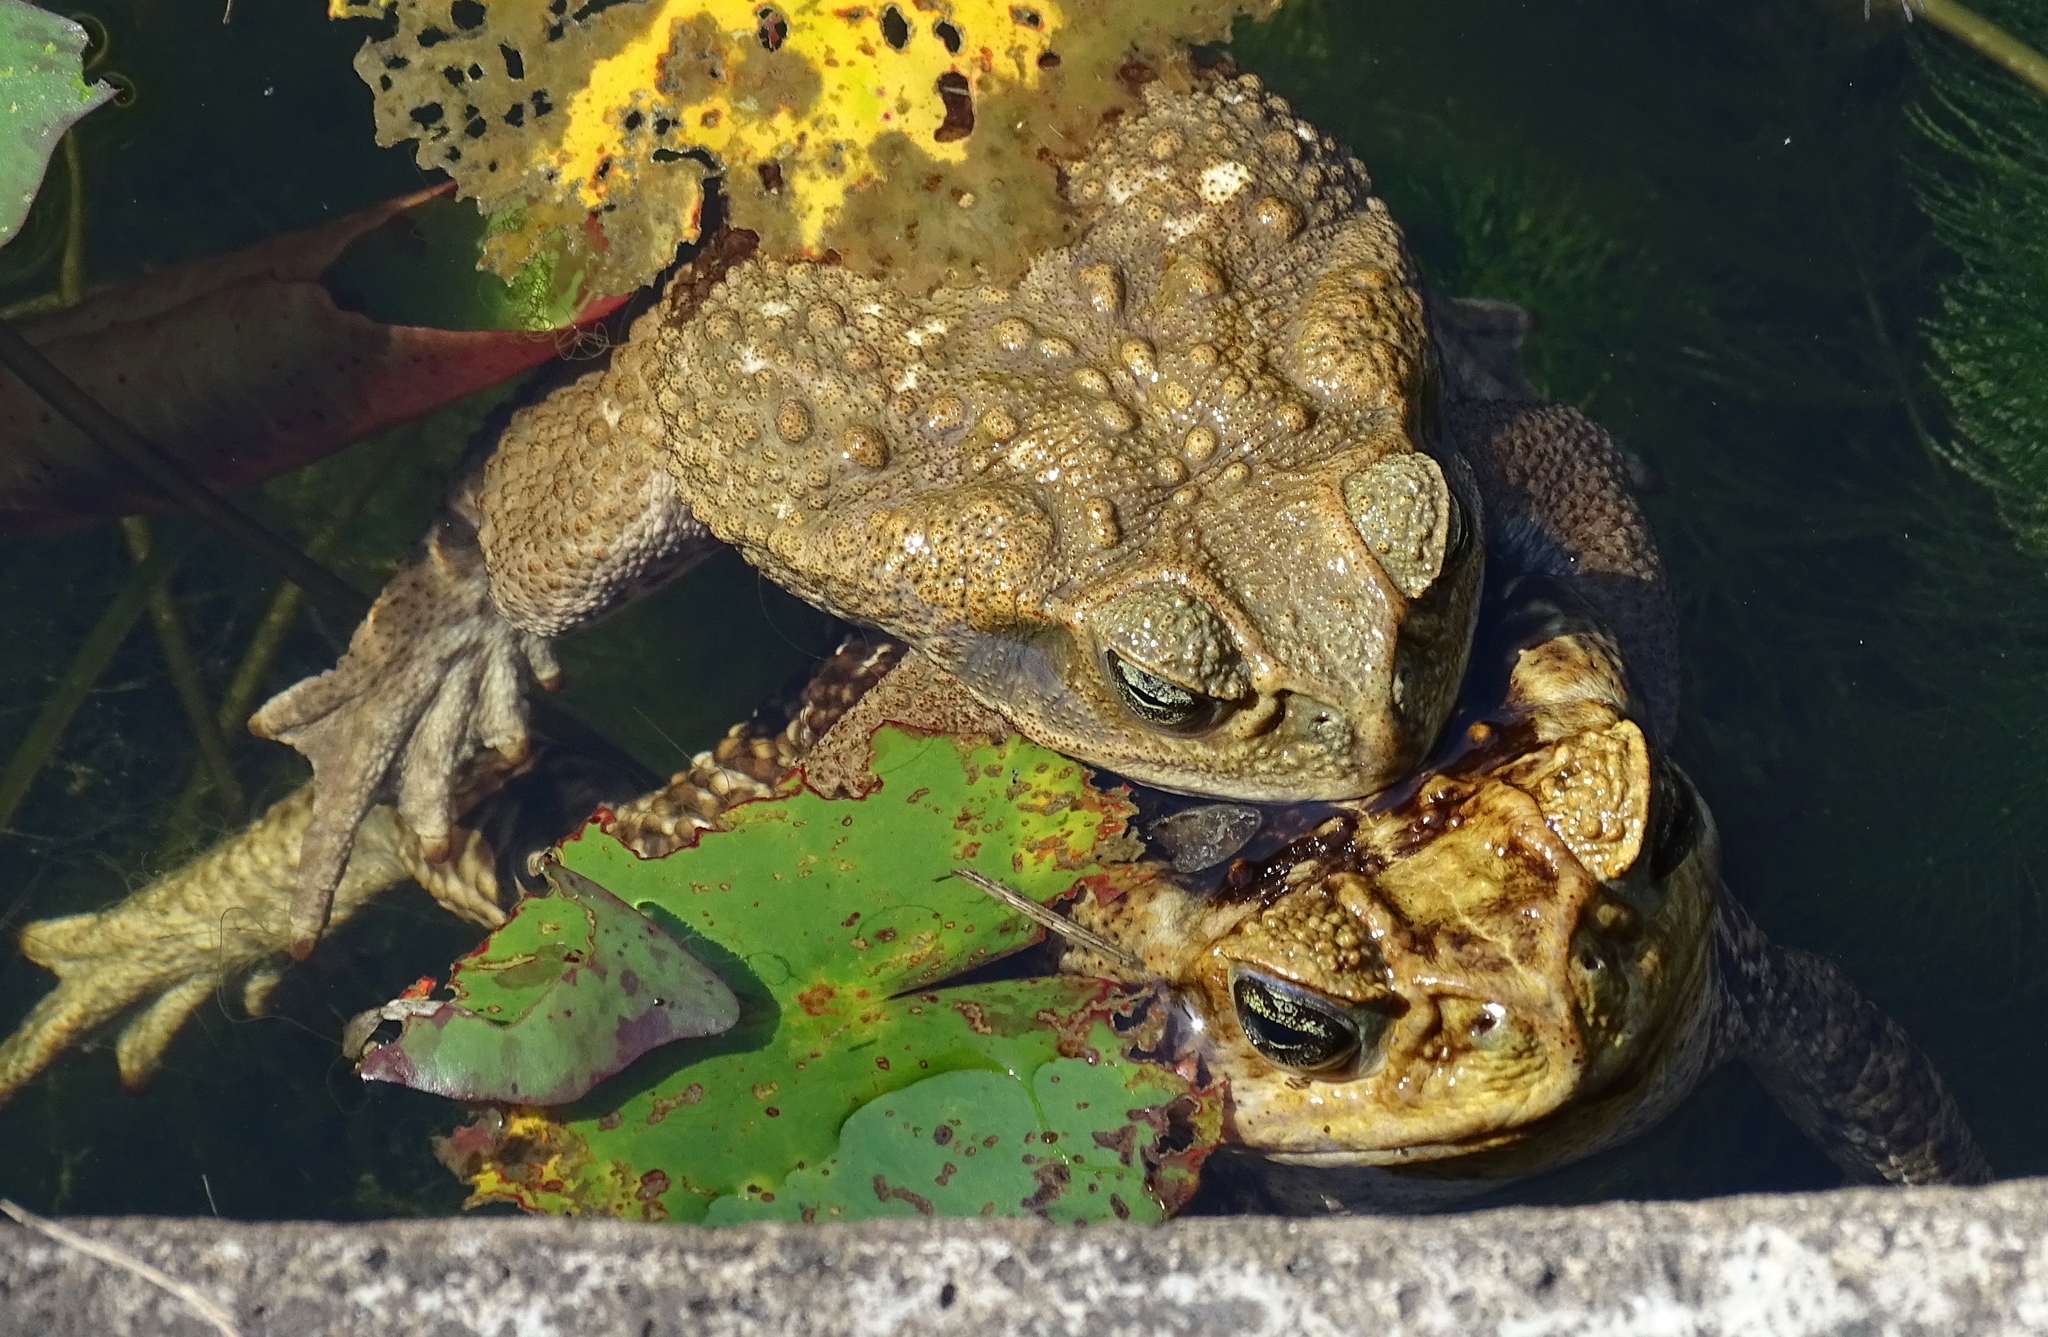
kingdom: Animalia
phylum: Chordata
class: Amphibia
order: Anura
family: Bufonidae
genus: Rhinella
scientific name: Rhinella marina
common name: Cane toad
